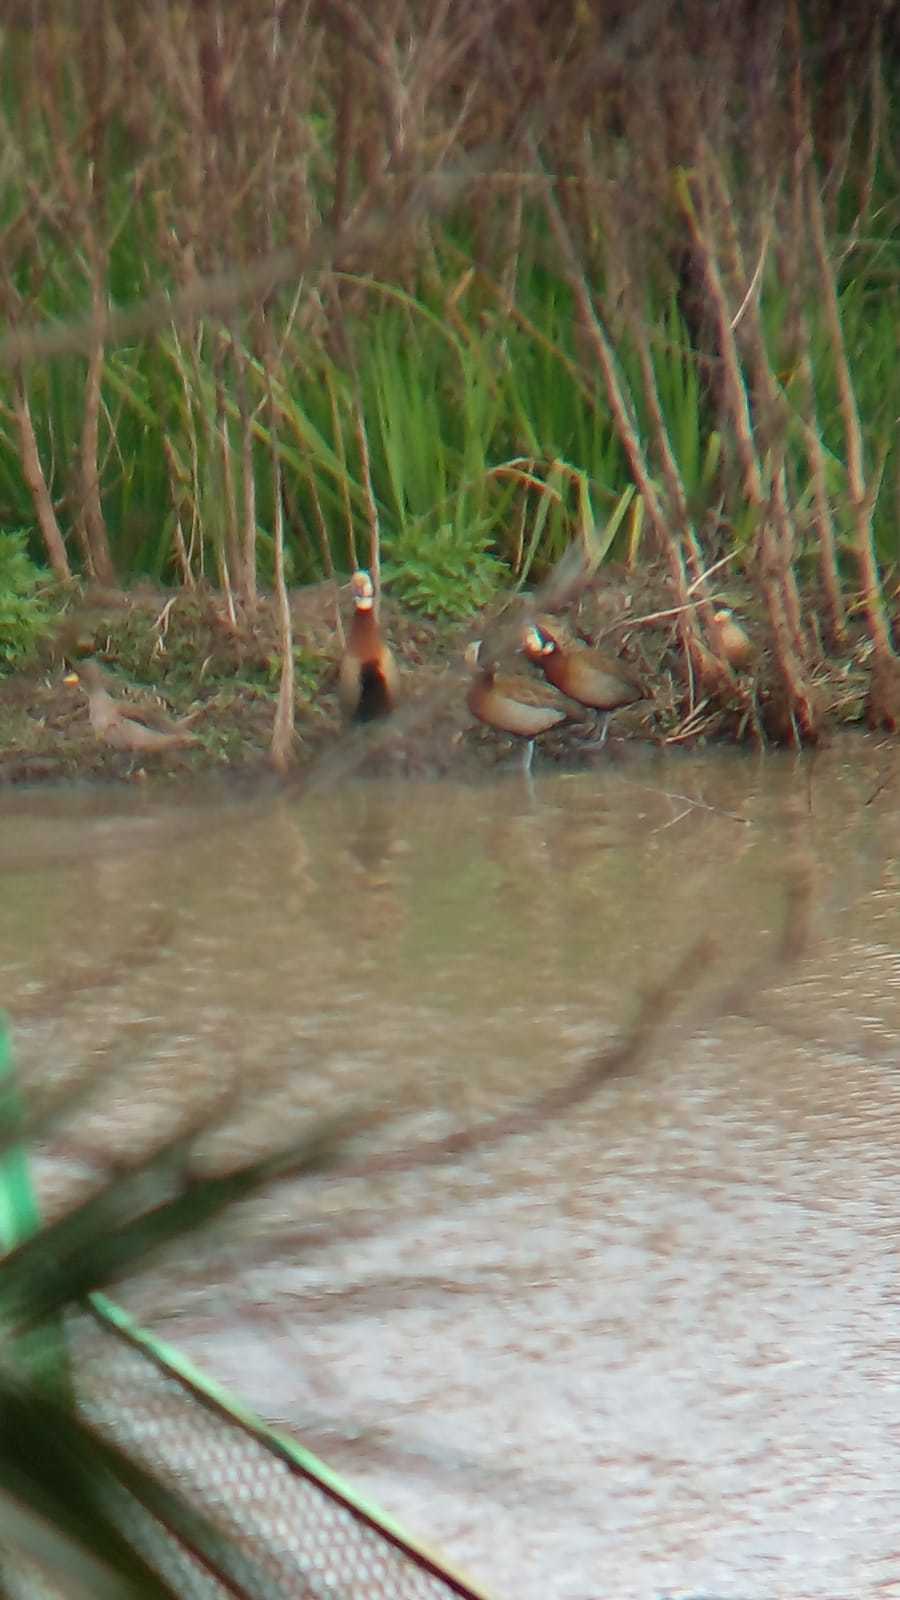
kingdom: Animalia
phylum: Chordata
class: Aves
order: Anseriformes
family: Anatidae
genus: Dendrocygna
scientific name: Dendrocygna viduata
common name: White-faced whistling duck
